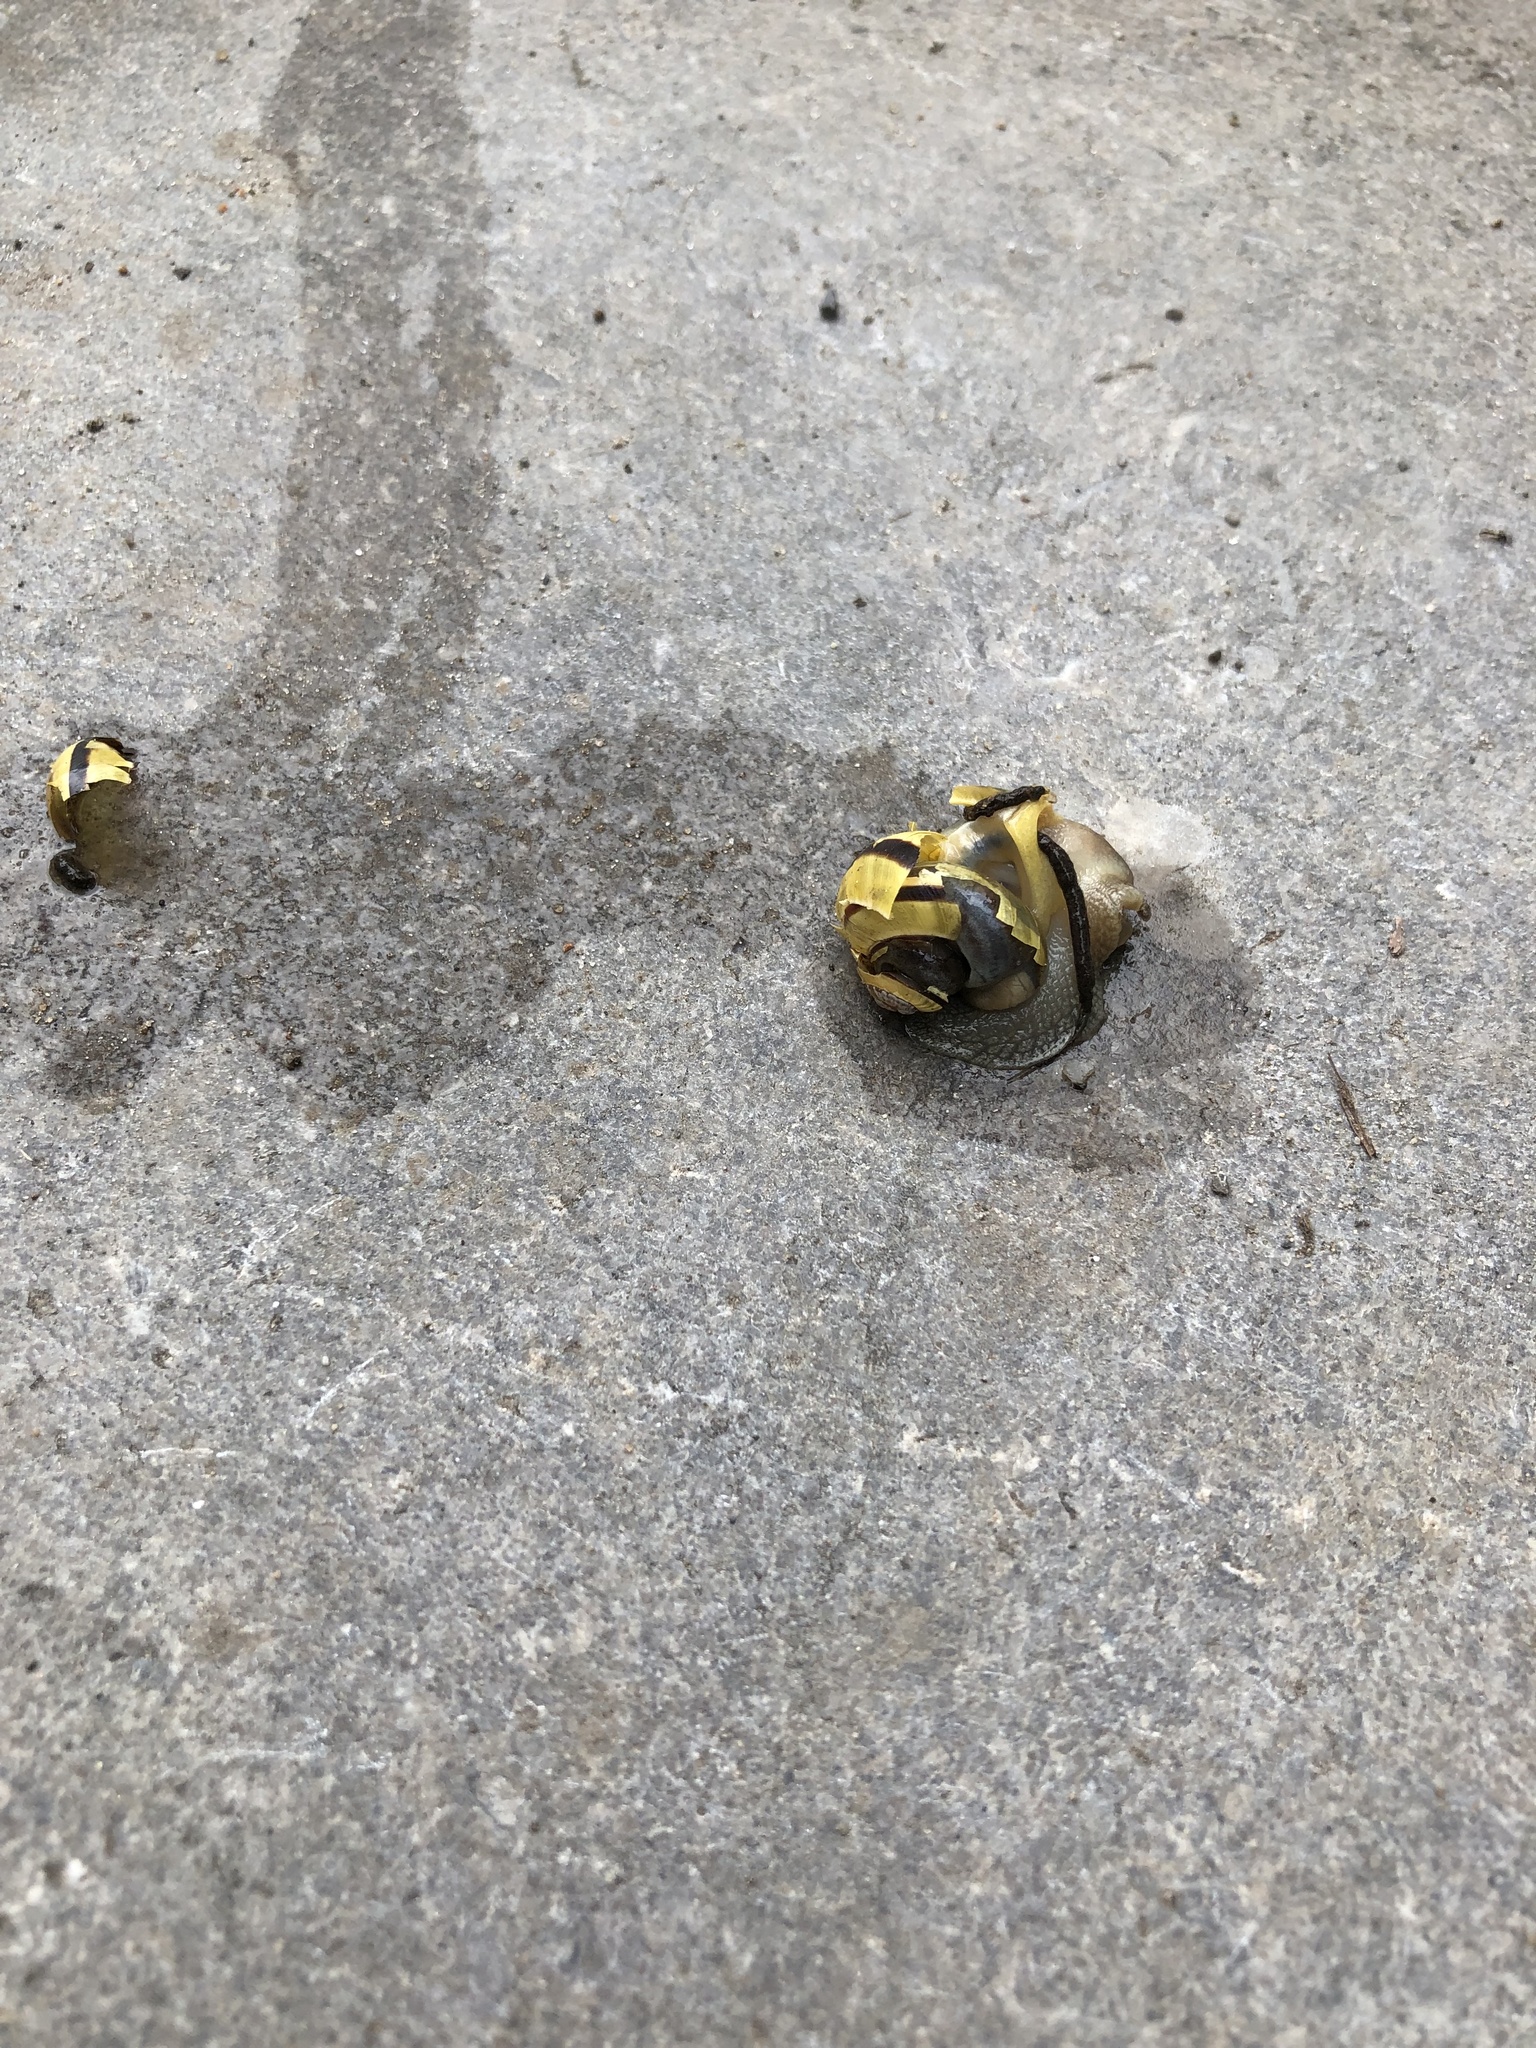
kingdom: Animalia
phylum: Mollusca
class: Gastropoda
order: Stylommatophora
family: Helicidae
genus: Cepaea
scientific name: Cepaea nemoralis
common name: Grovesnail
